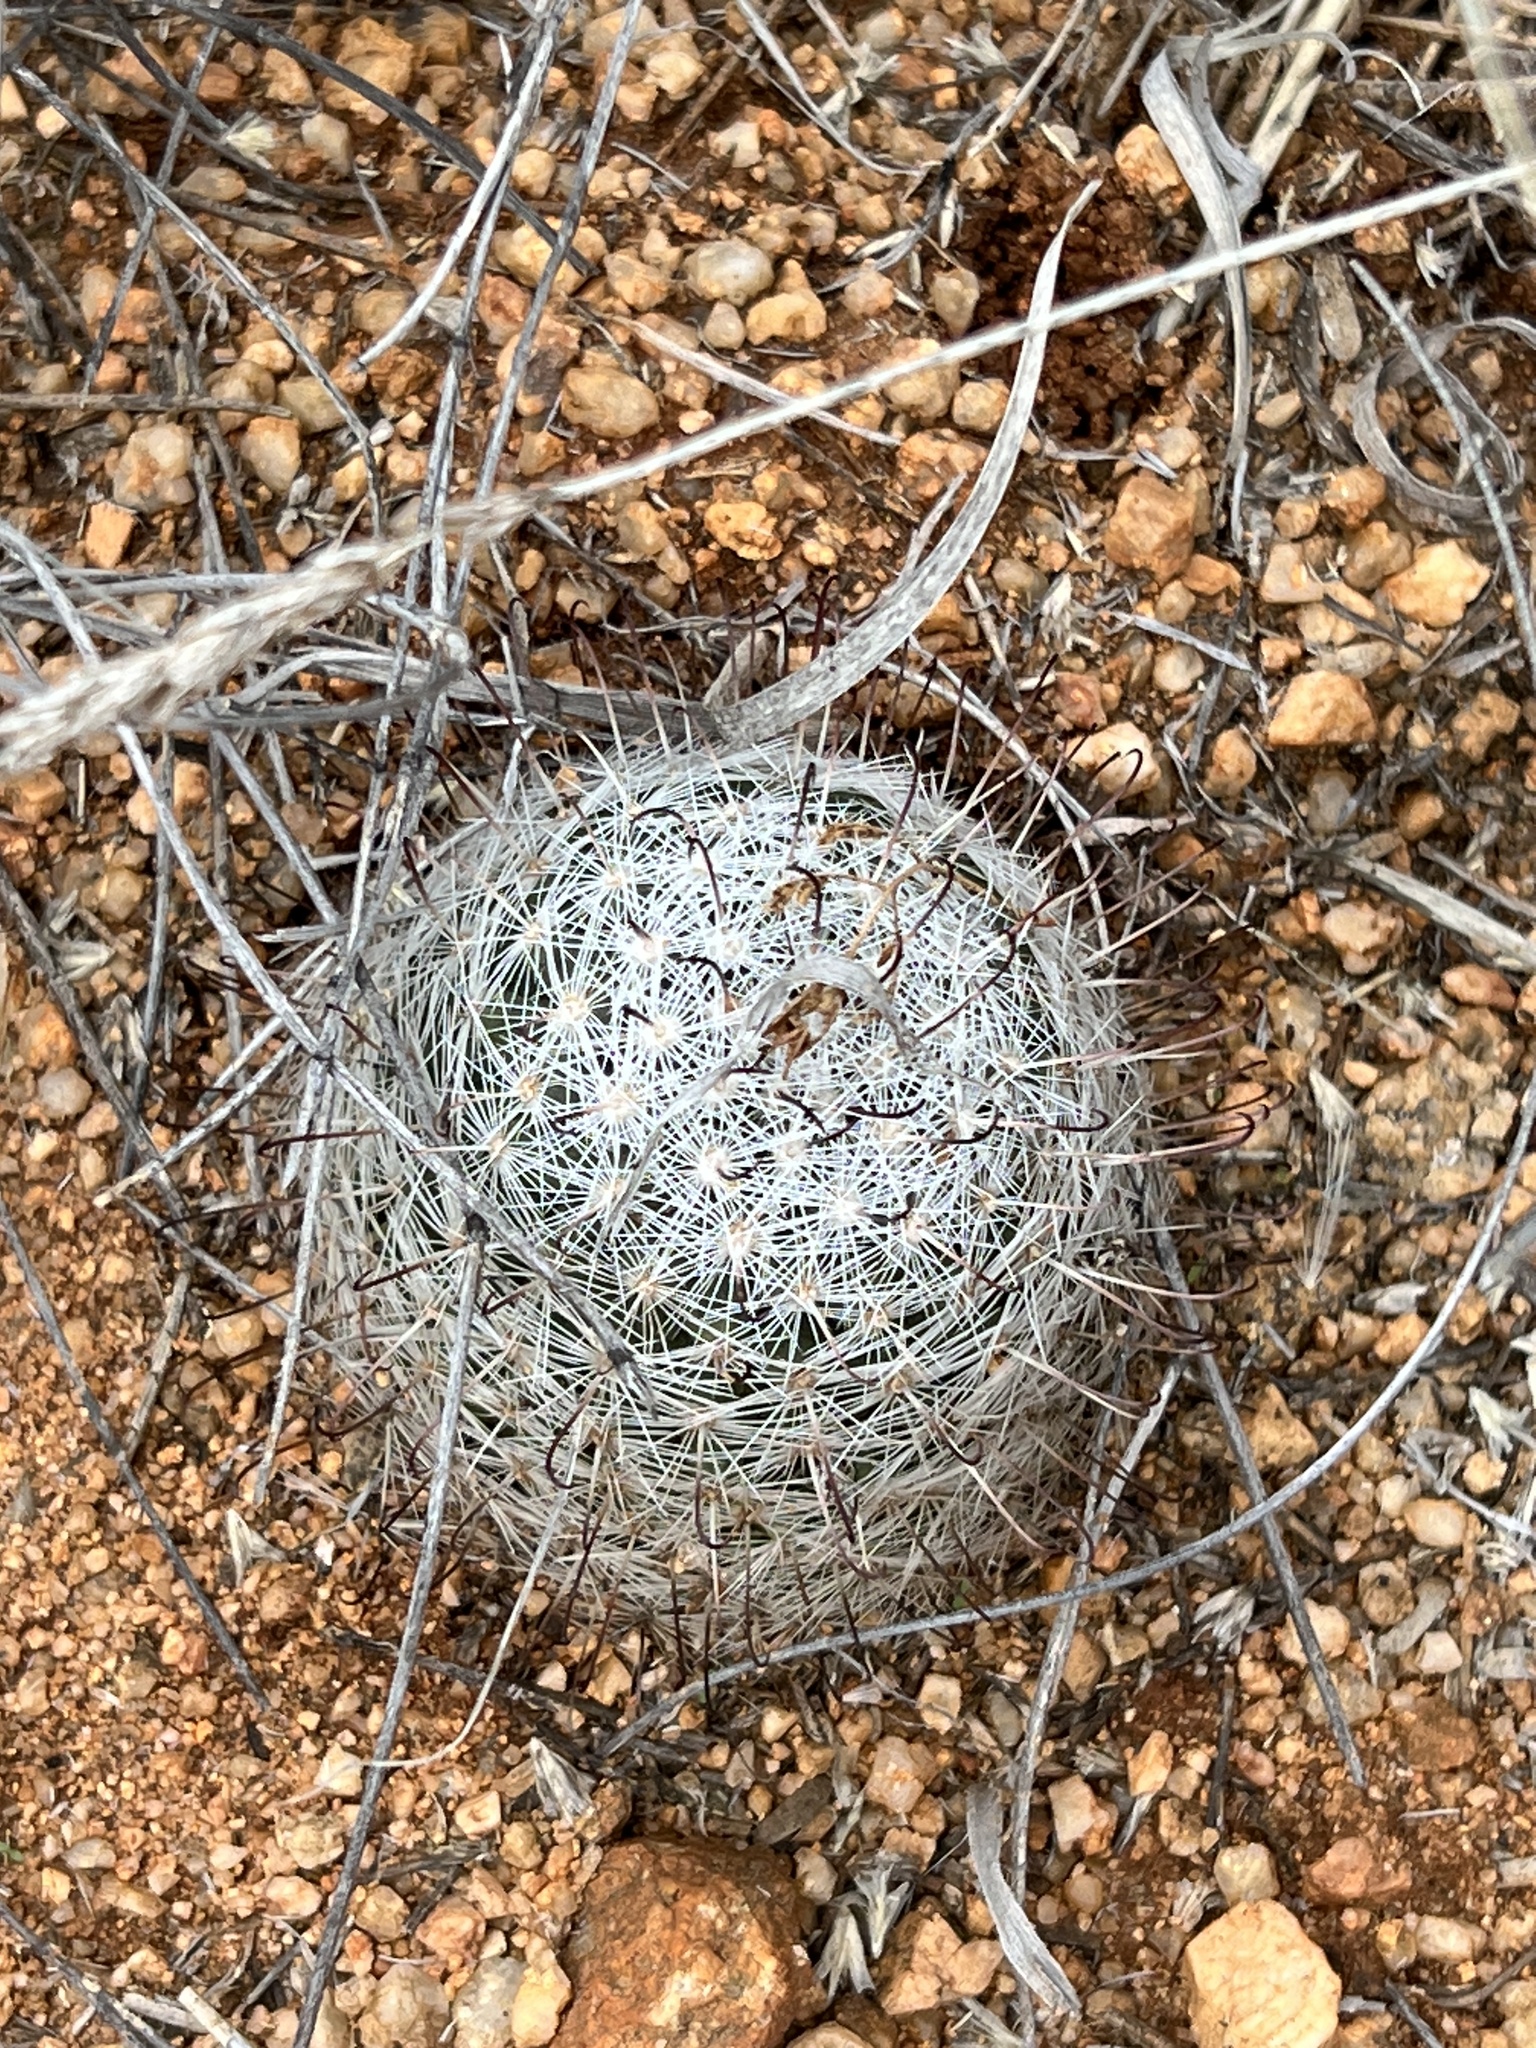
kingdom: Plantae
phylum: Tracheophyta
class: Magnoliopsida
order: Caryophyllales
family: Cactaceae
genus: Cochemiea
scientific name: Cochemiea grahamii
